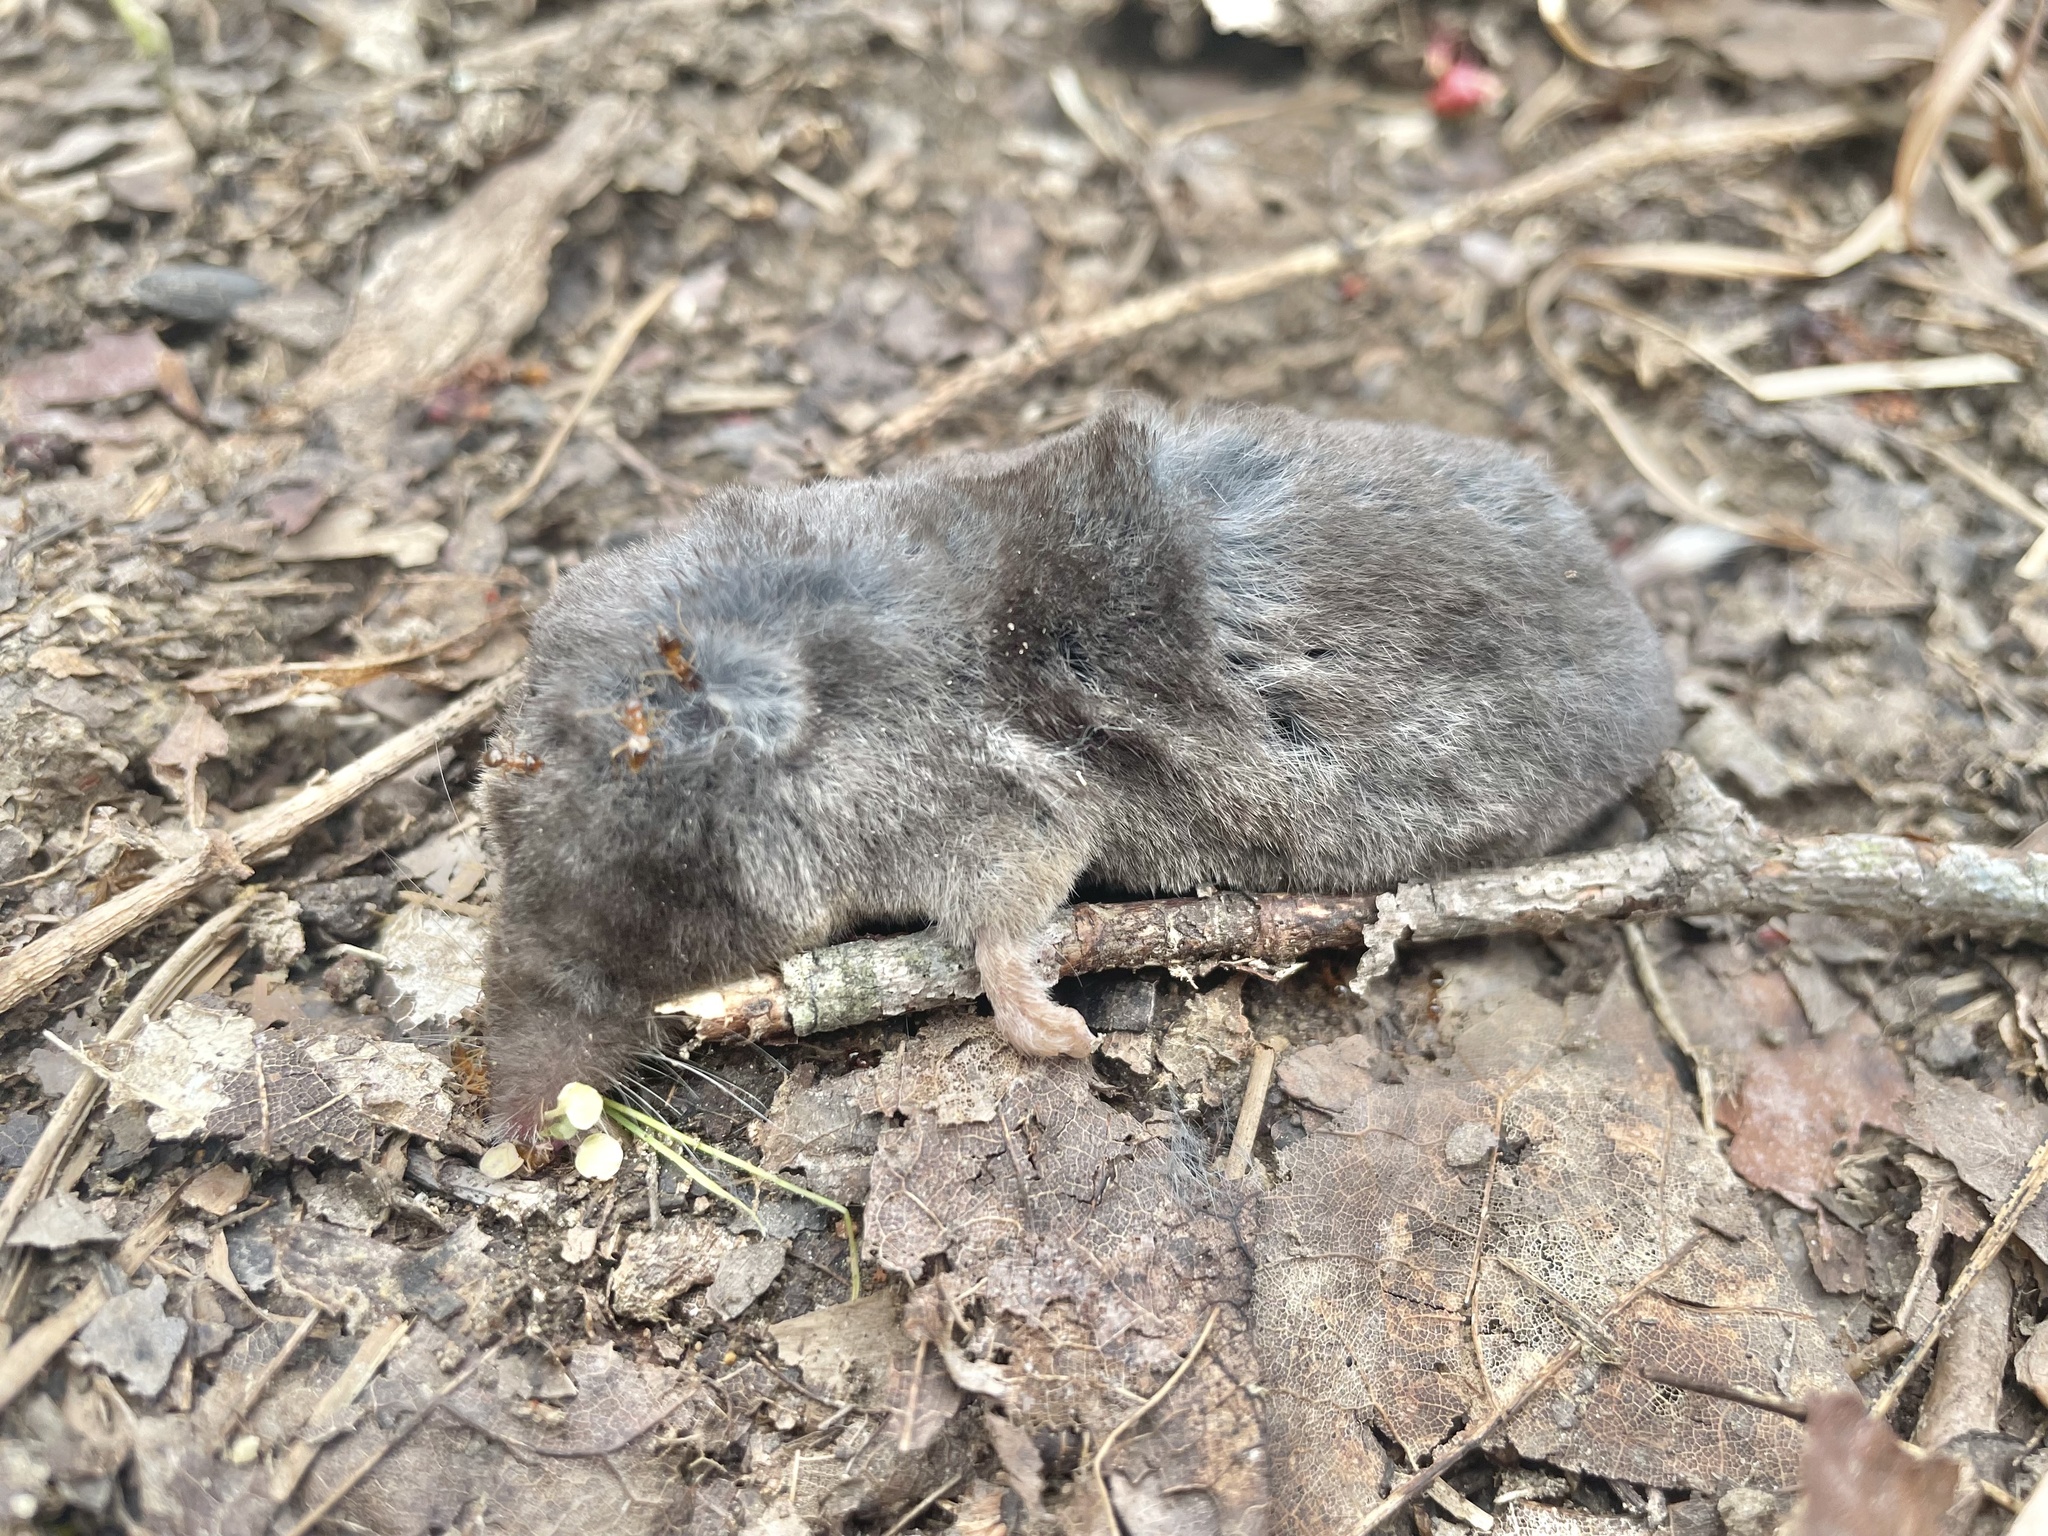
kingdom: Animalia
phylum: Chordata
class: Mammalia
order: Soricomorpha
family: Soricidae
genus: Blarina
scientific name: Blarina brevicauda
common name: Northern short-tailed shrew
